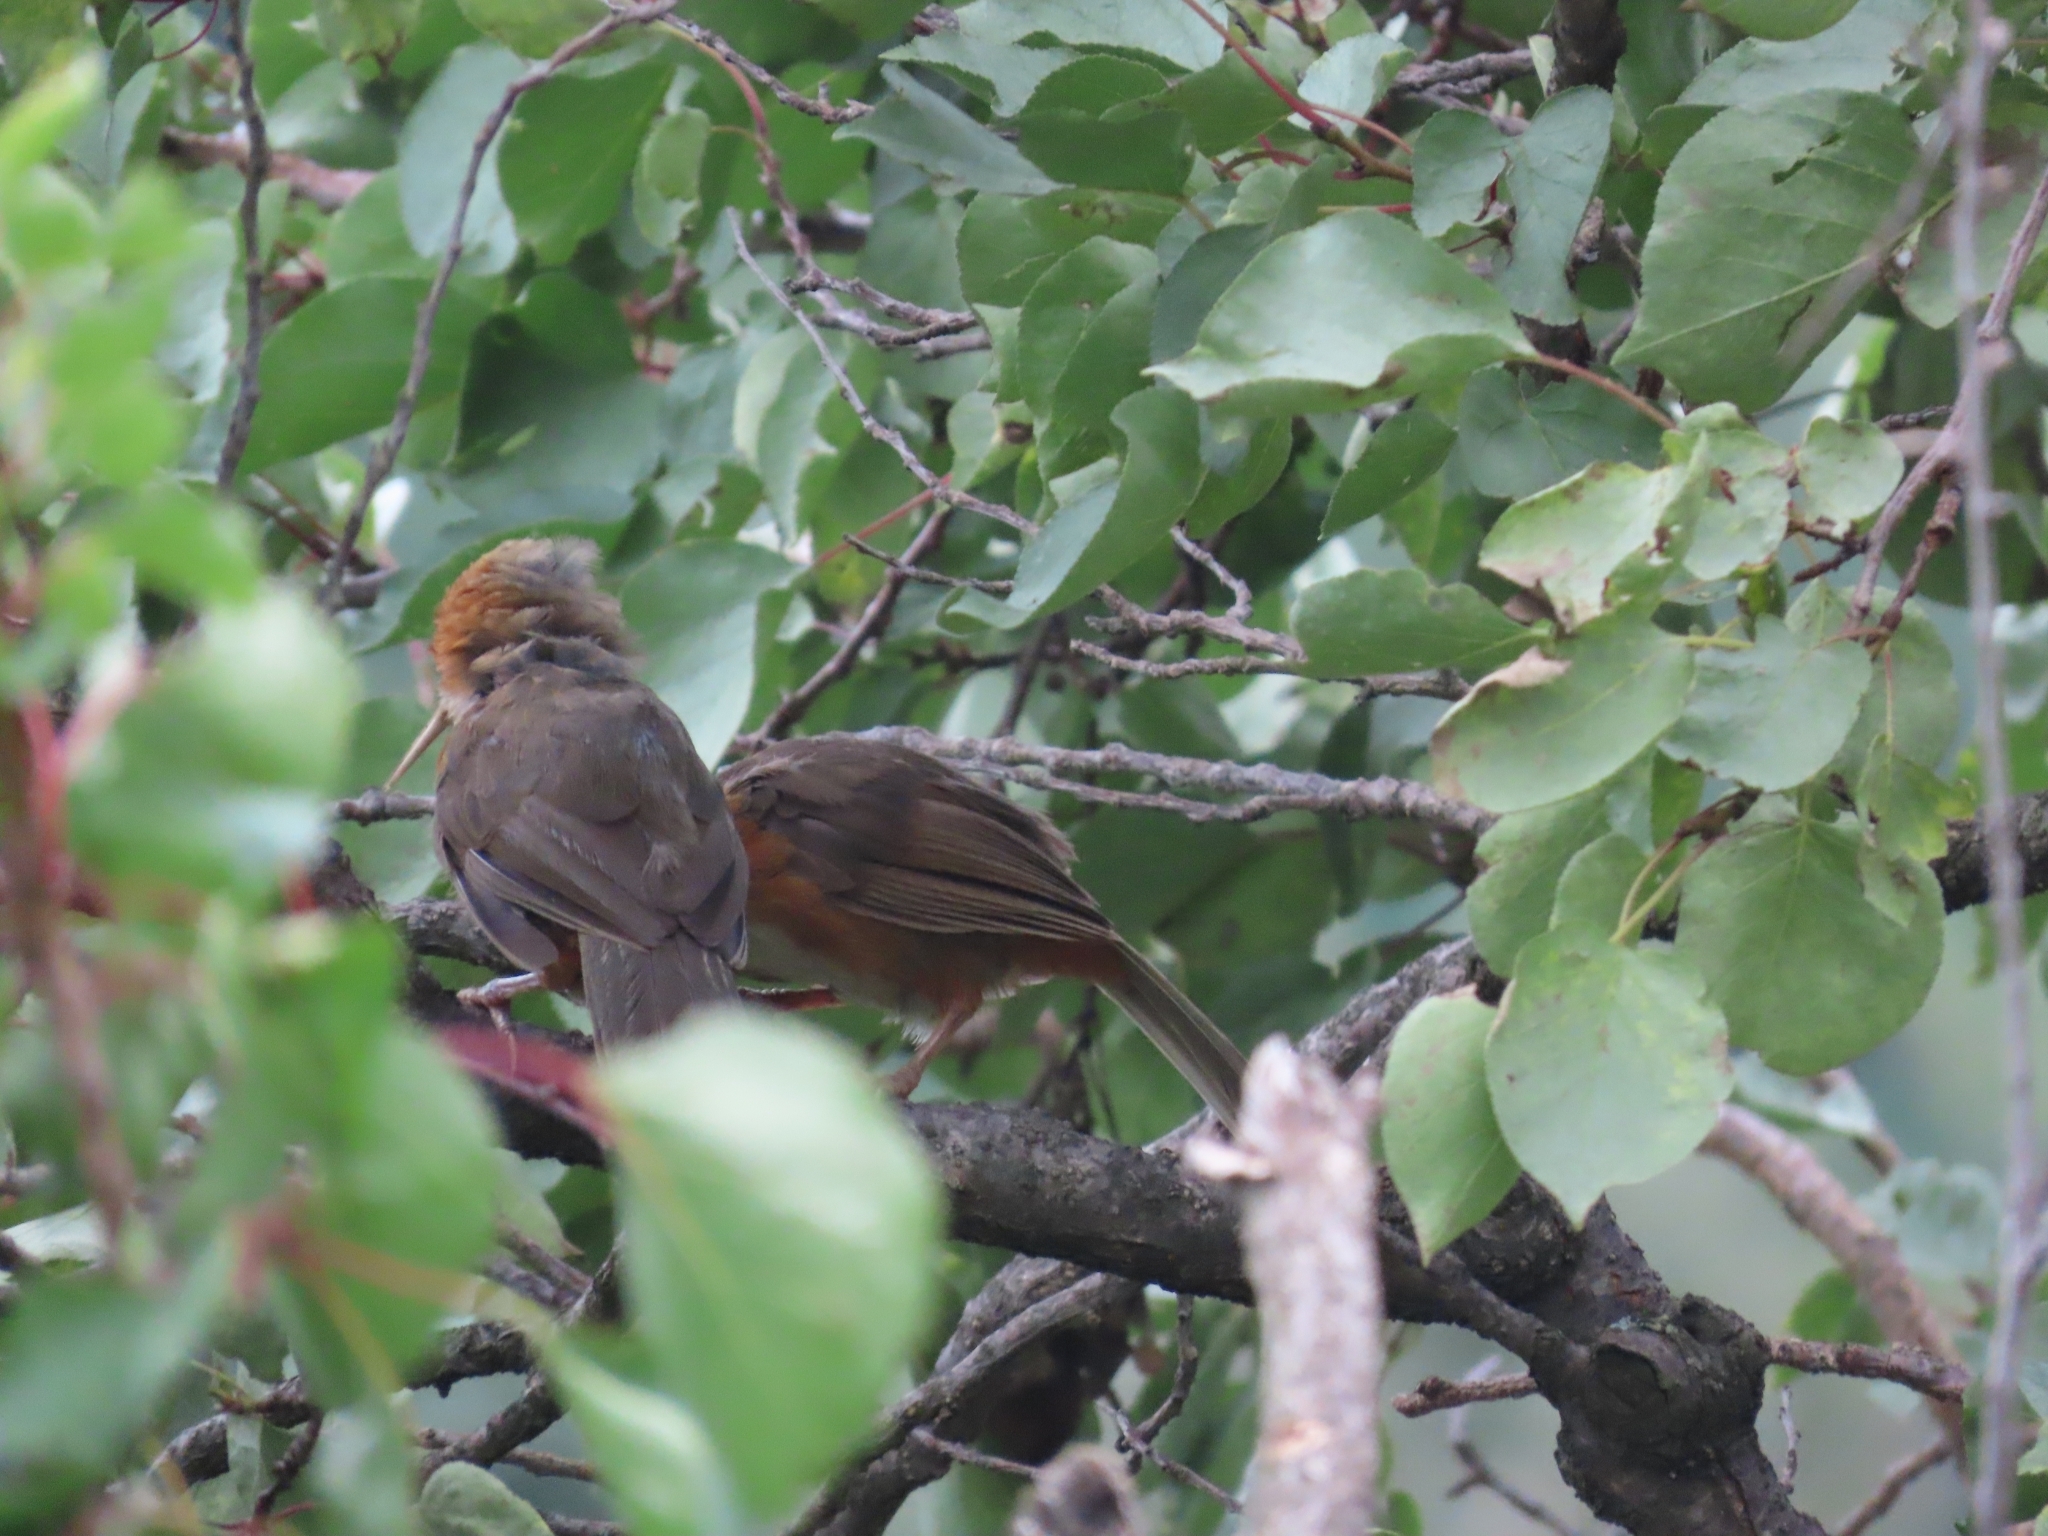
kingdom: Animalia
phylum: Chordata
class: Aves
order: Passeriformes
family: Timaliidae
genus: Pomatorhinus
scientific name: Pomatorhinus erythrogenys
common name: Rusty-cheeked scimitar babbler
